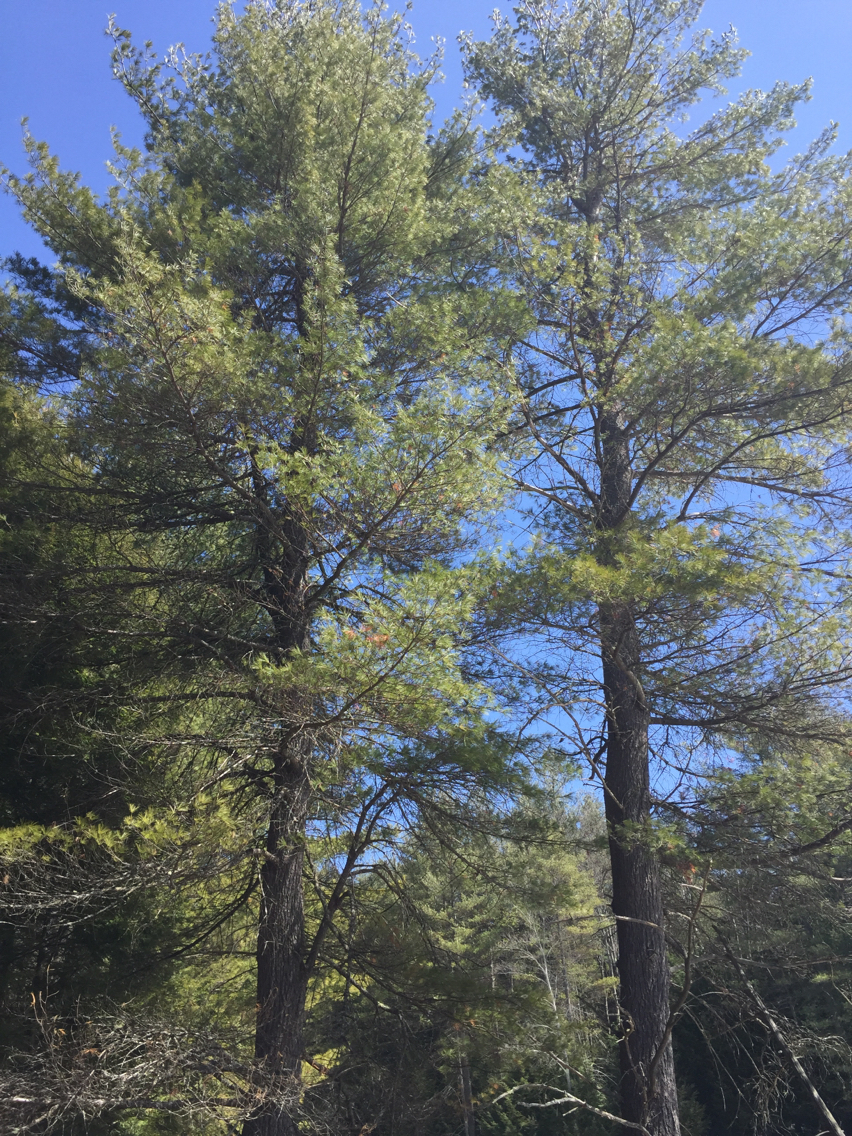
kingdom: Plantae
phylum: Tracheophyta
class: Pinopsida
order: Pinales
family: Pinaceae
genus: Pinus
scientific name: Pinus strobus
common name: Weymouth pine
